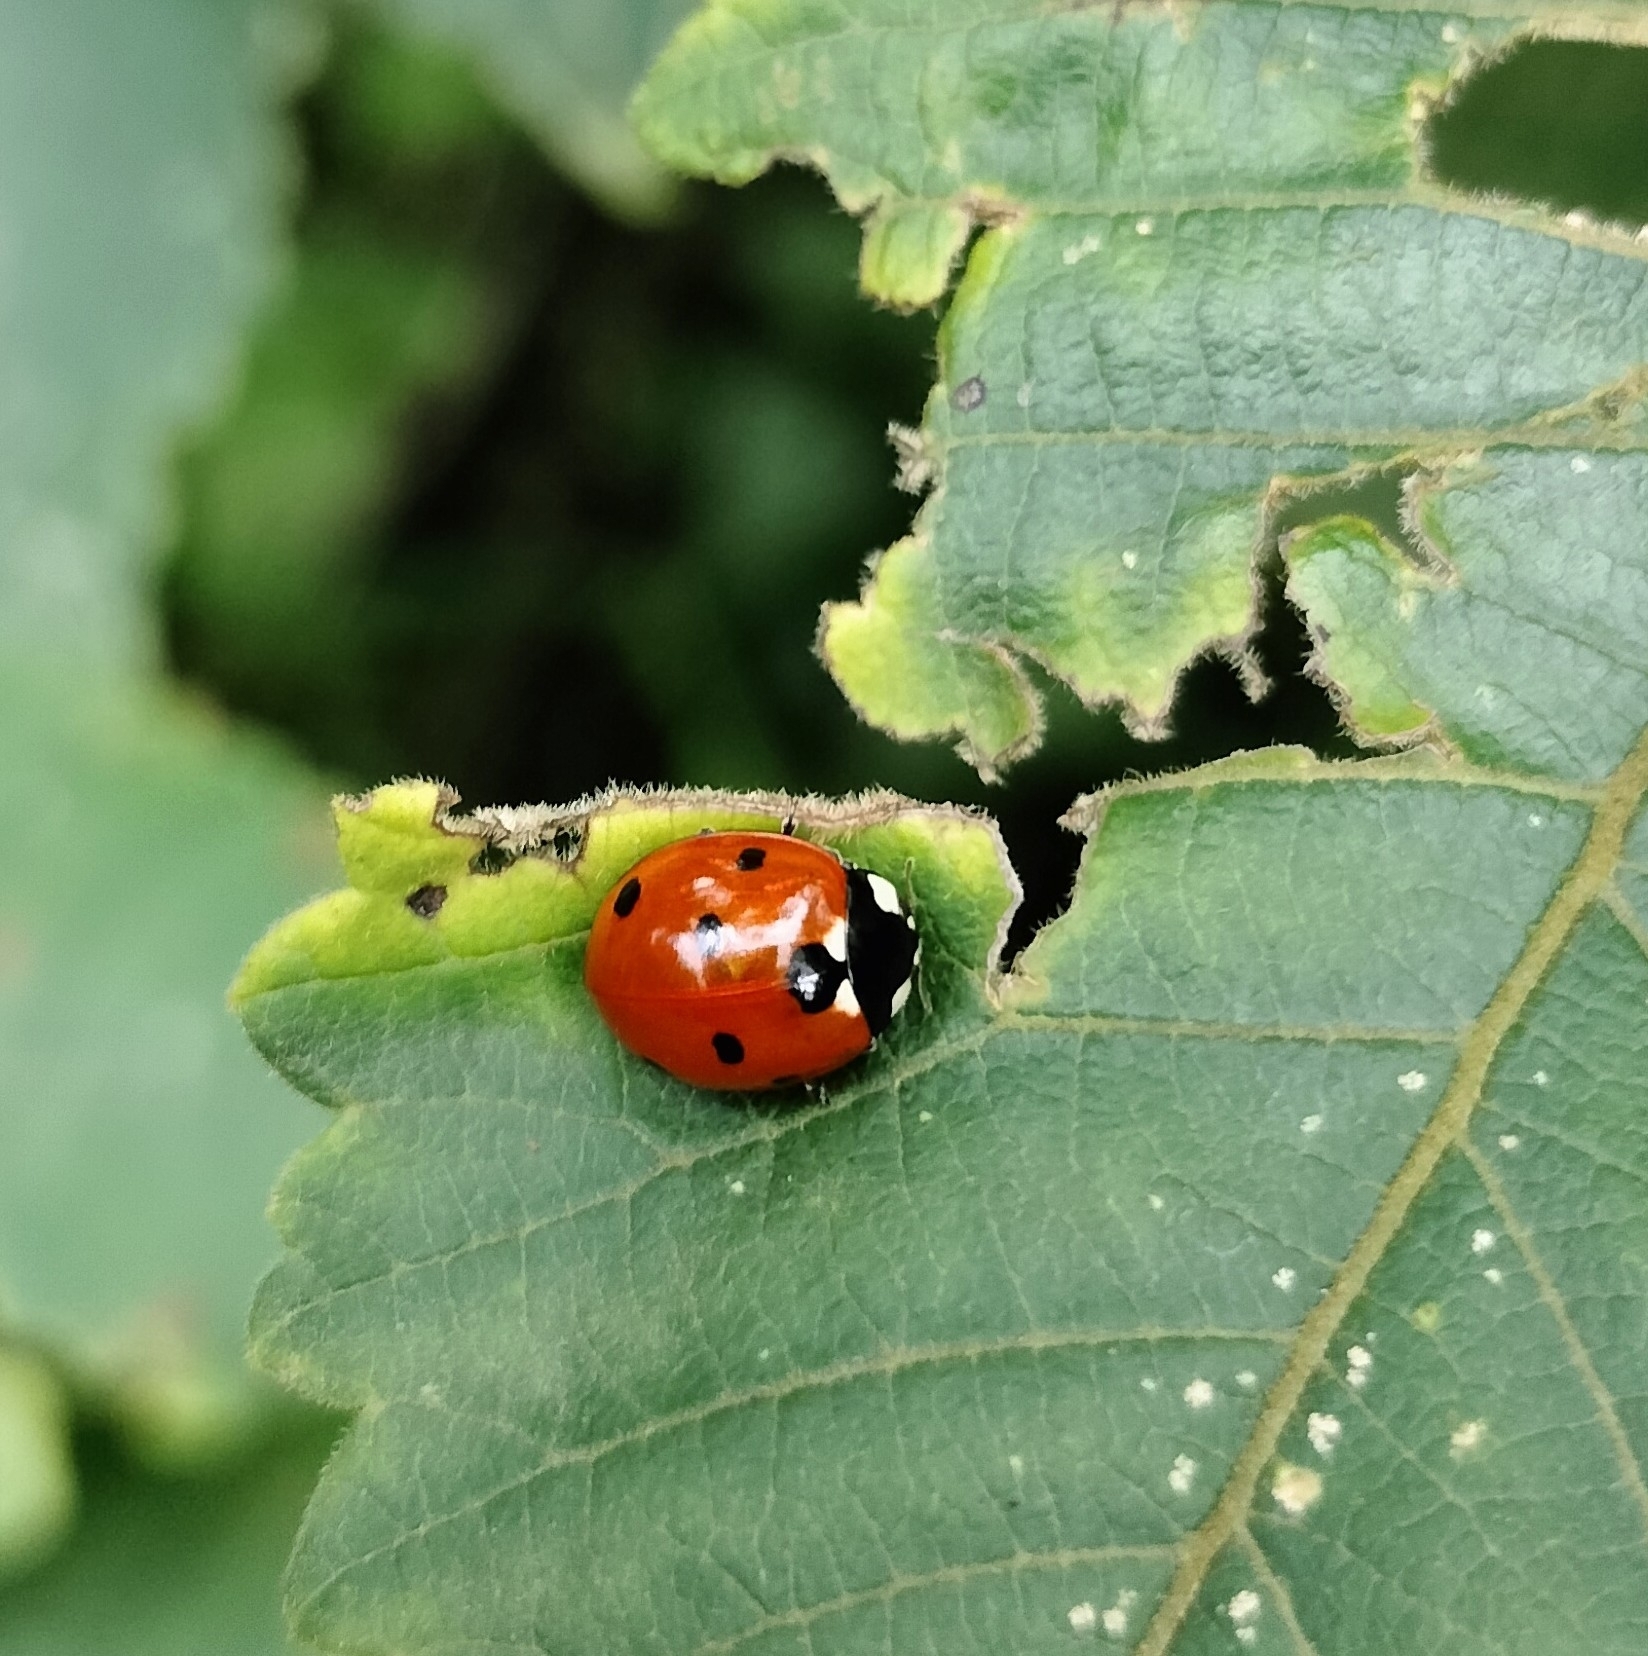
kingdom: Animalia
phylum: Arthropoda
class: Insecta
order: Coleoptera
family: Coccinellidae
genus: Coccinella
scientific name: Coccinella septempunctata
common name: Sevenspotted lady beetle
